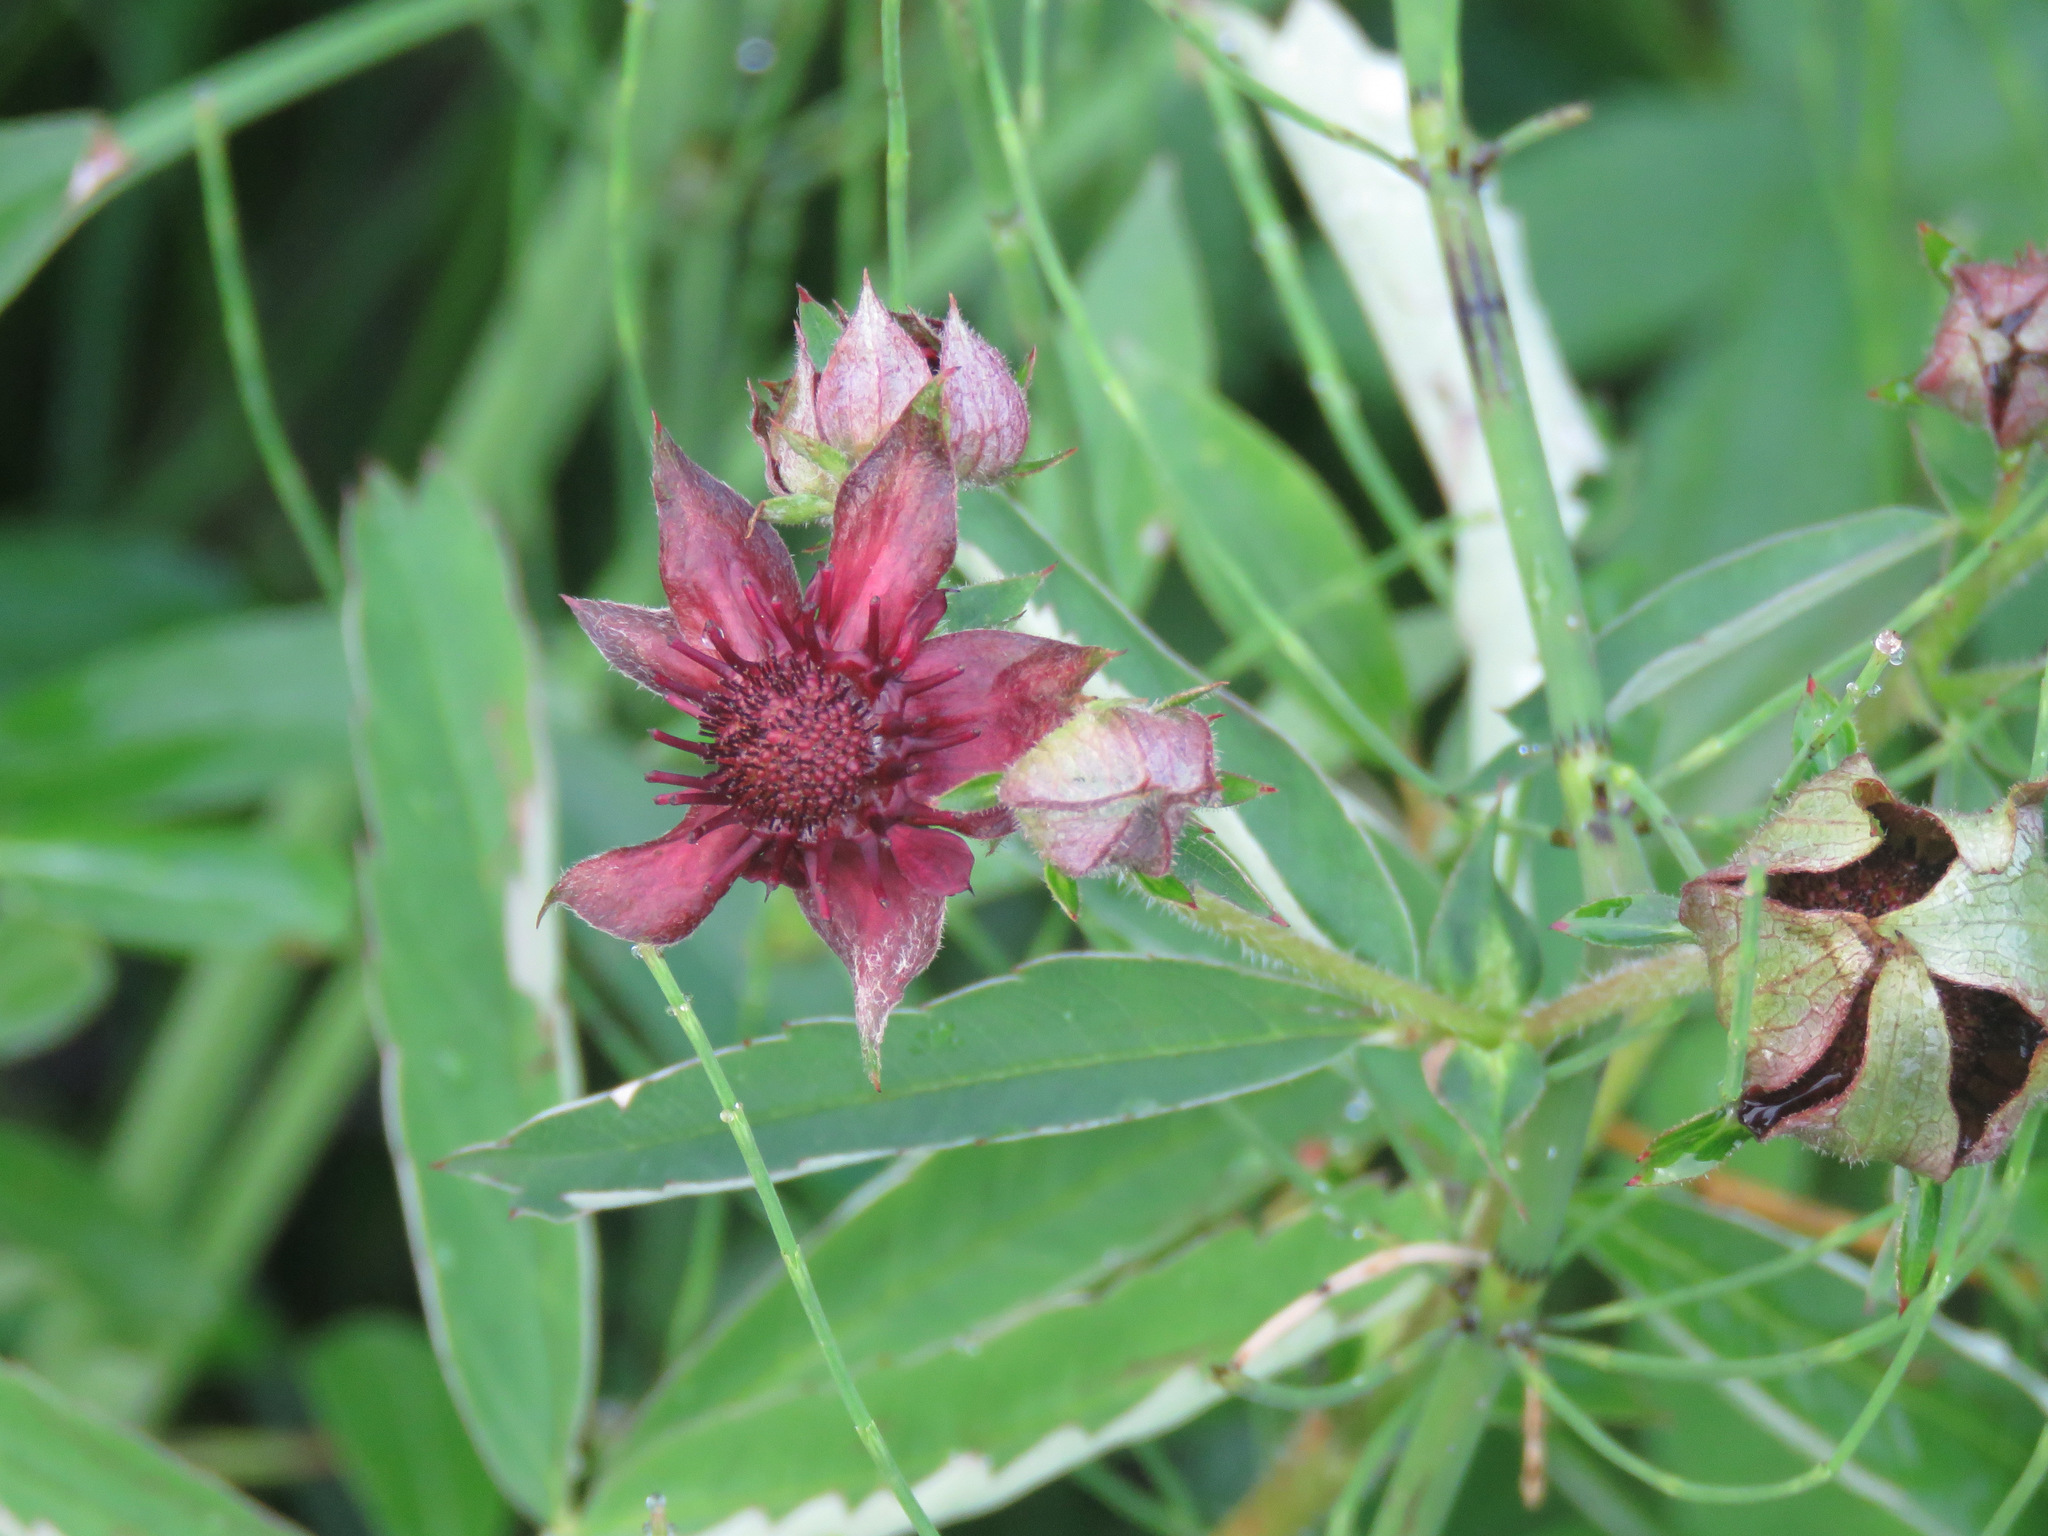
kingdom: Plantae
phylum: Tracheophyta
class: Magnoliopsida
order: Rosales
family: Rosaceae
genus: Comarum
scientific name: Comarum palustre
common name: Marsh cinquefoil
